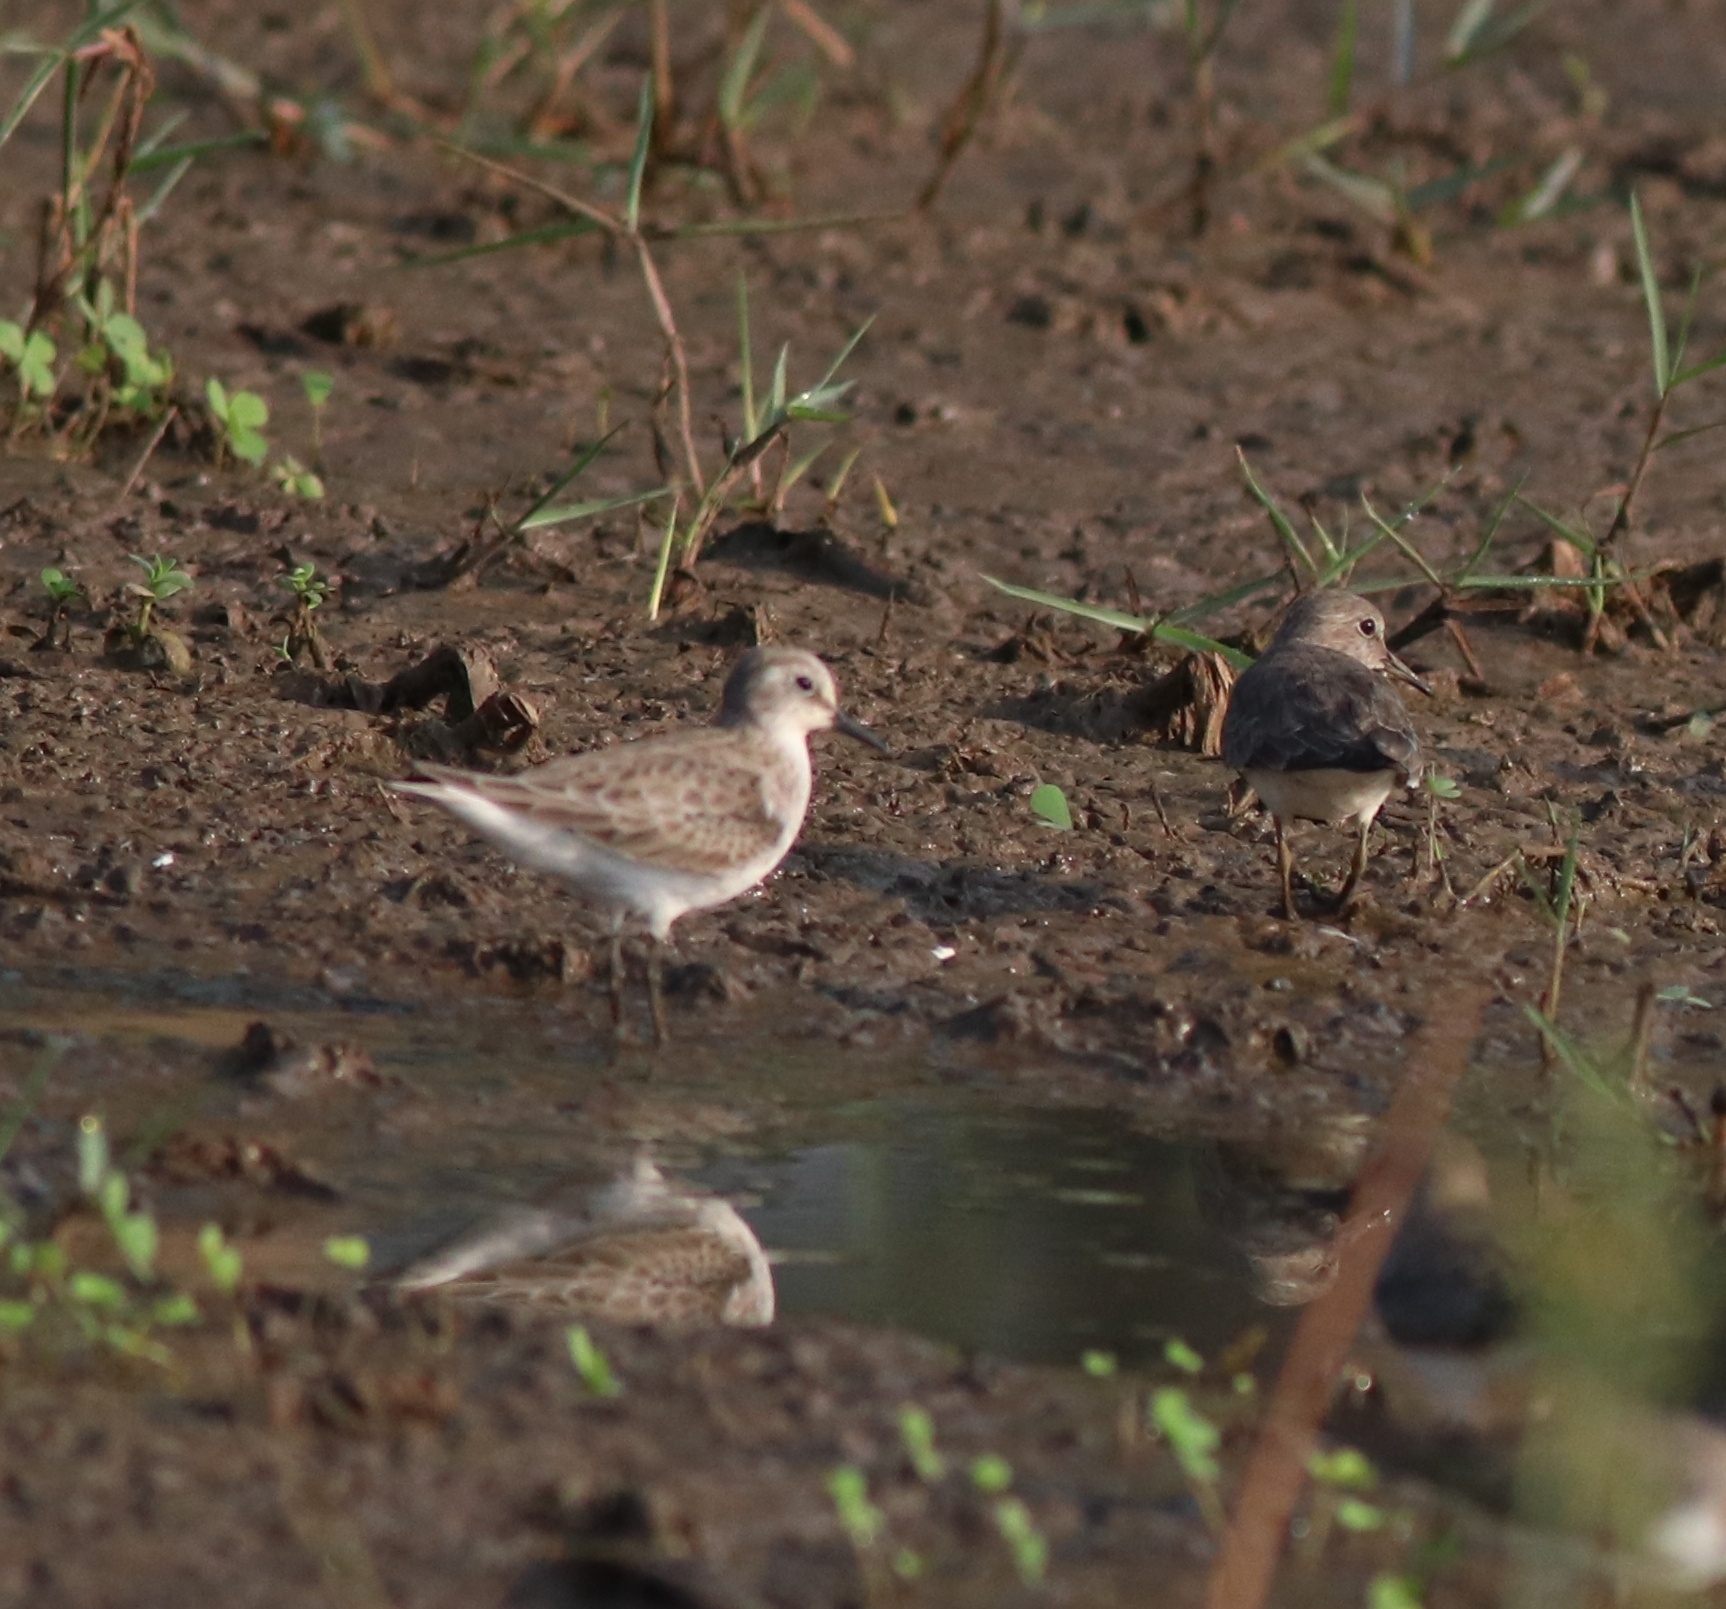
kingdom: Animalia
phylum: Chordata
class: Aves
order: Charadriiformes
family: Scolopacidae
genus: Calidris
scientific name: Calidris temminckii
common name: Temminck's stint
